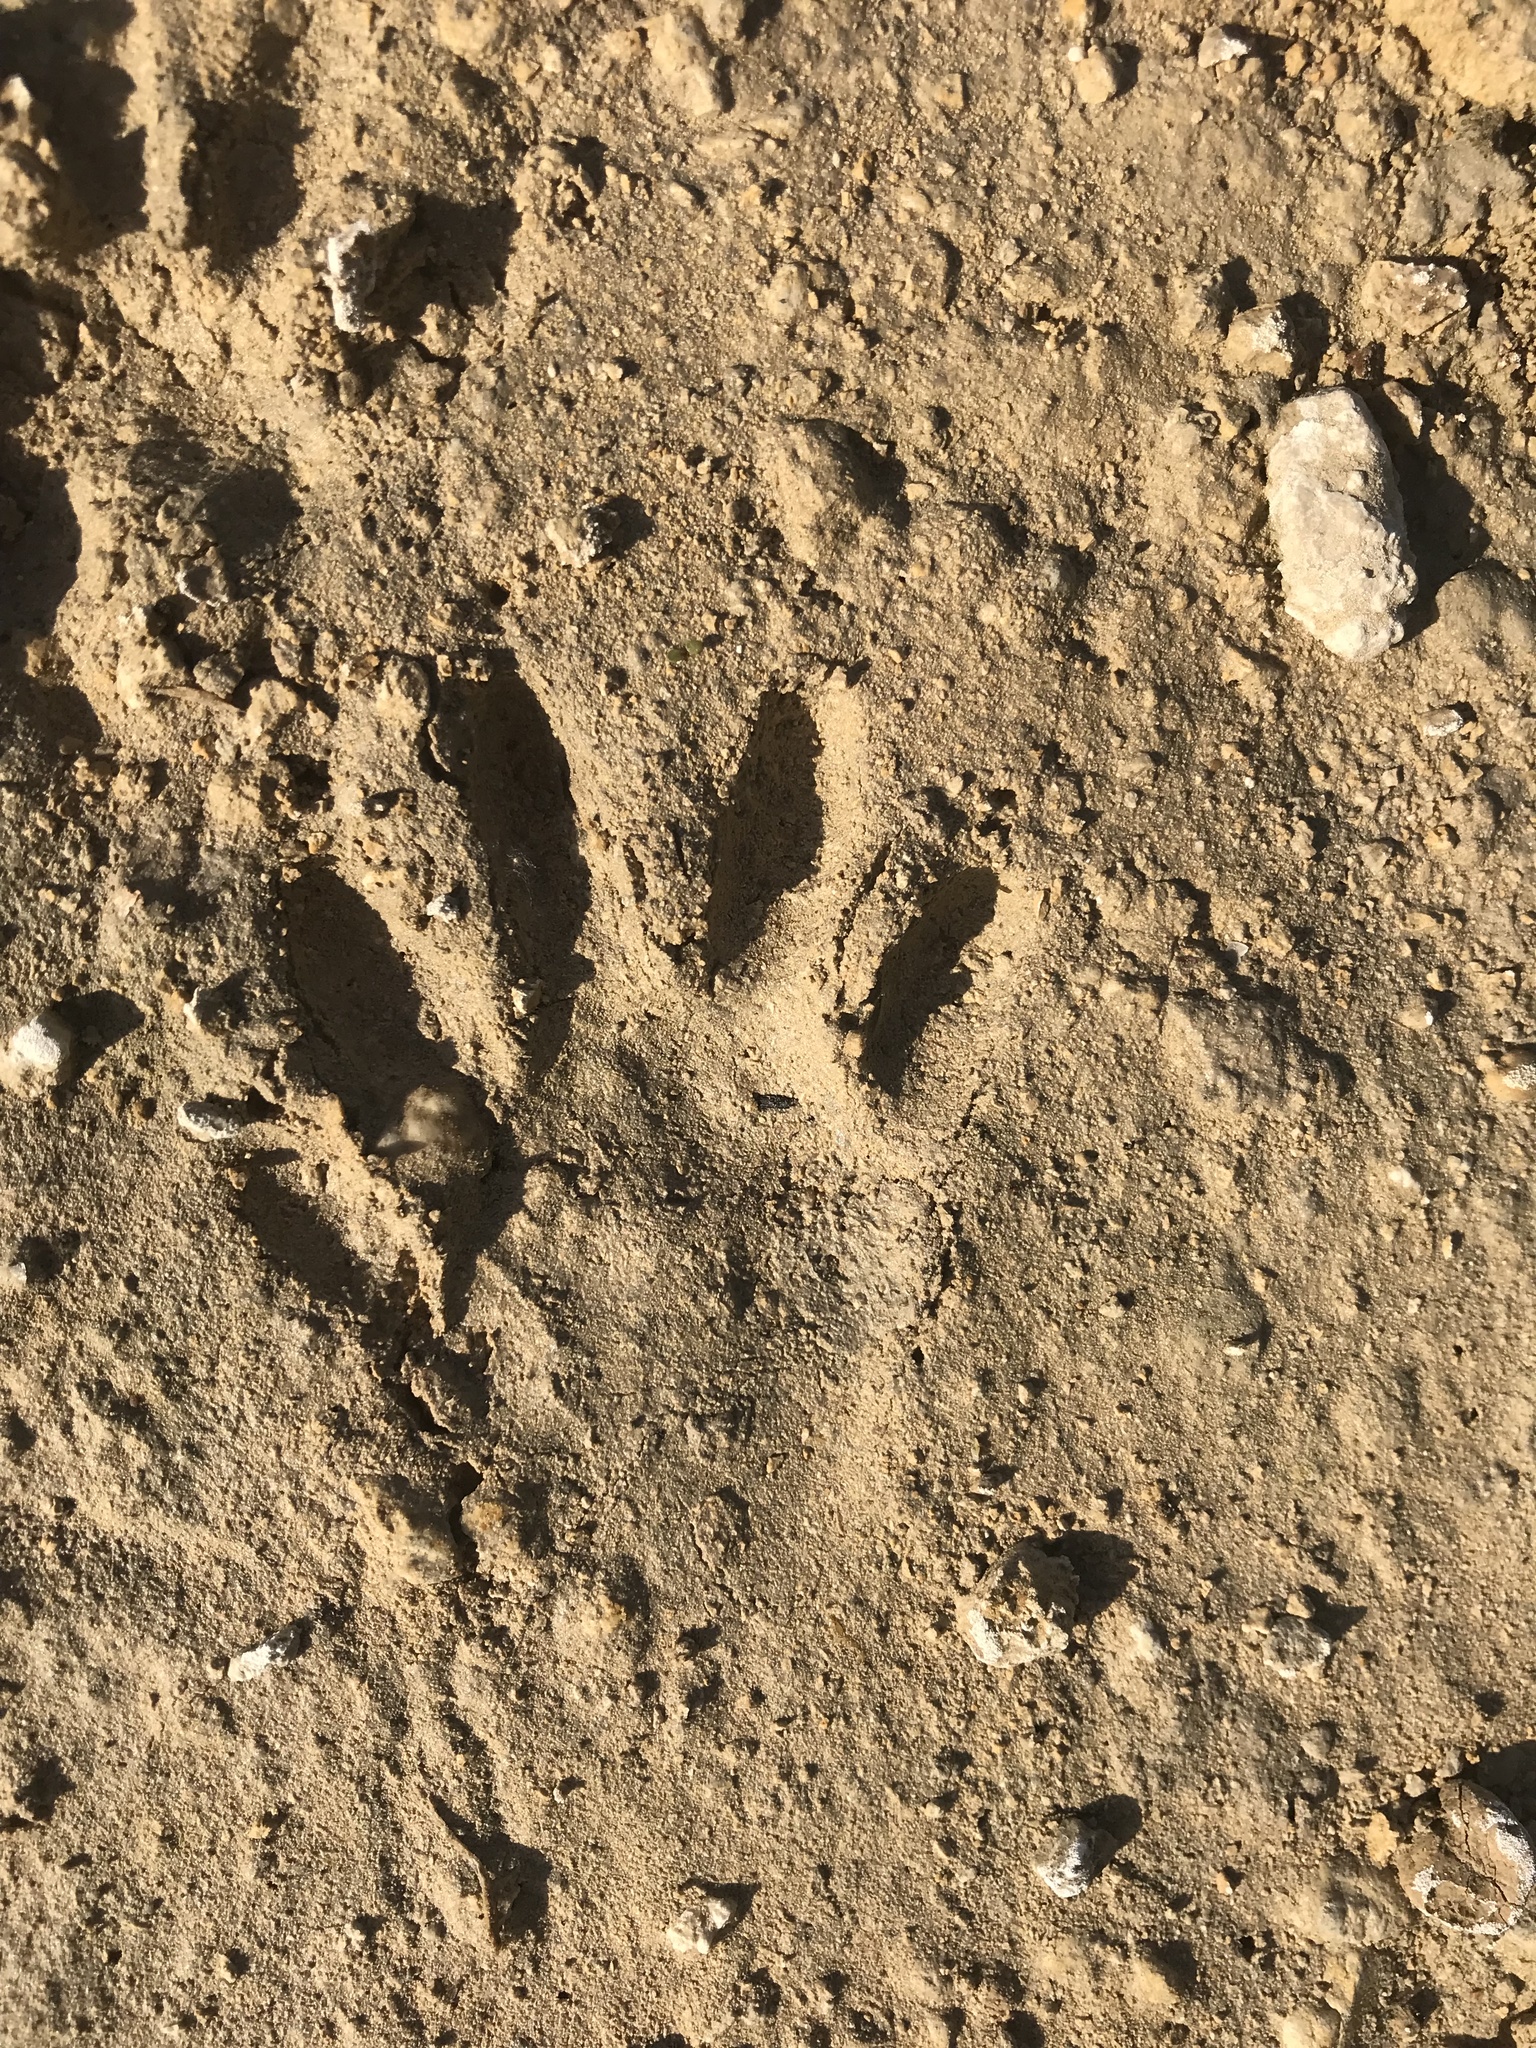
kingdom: Animalia
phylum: Chordata
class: Mammalia
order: Carnivora
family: Procyonidae
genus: Procyon
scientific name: Procyon lotor
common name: Raccoon
